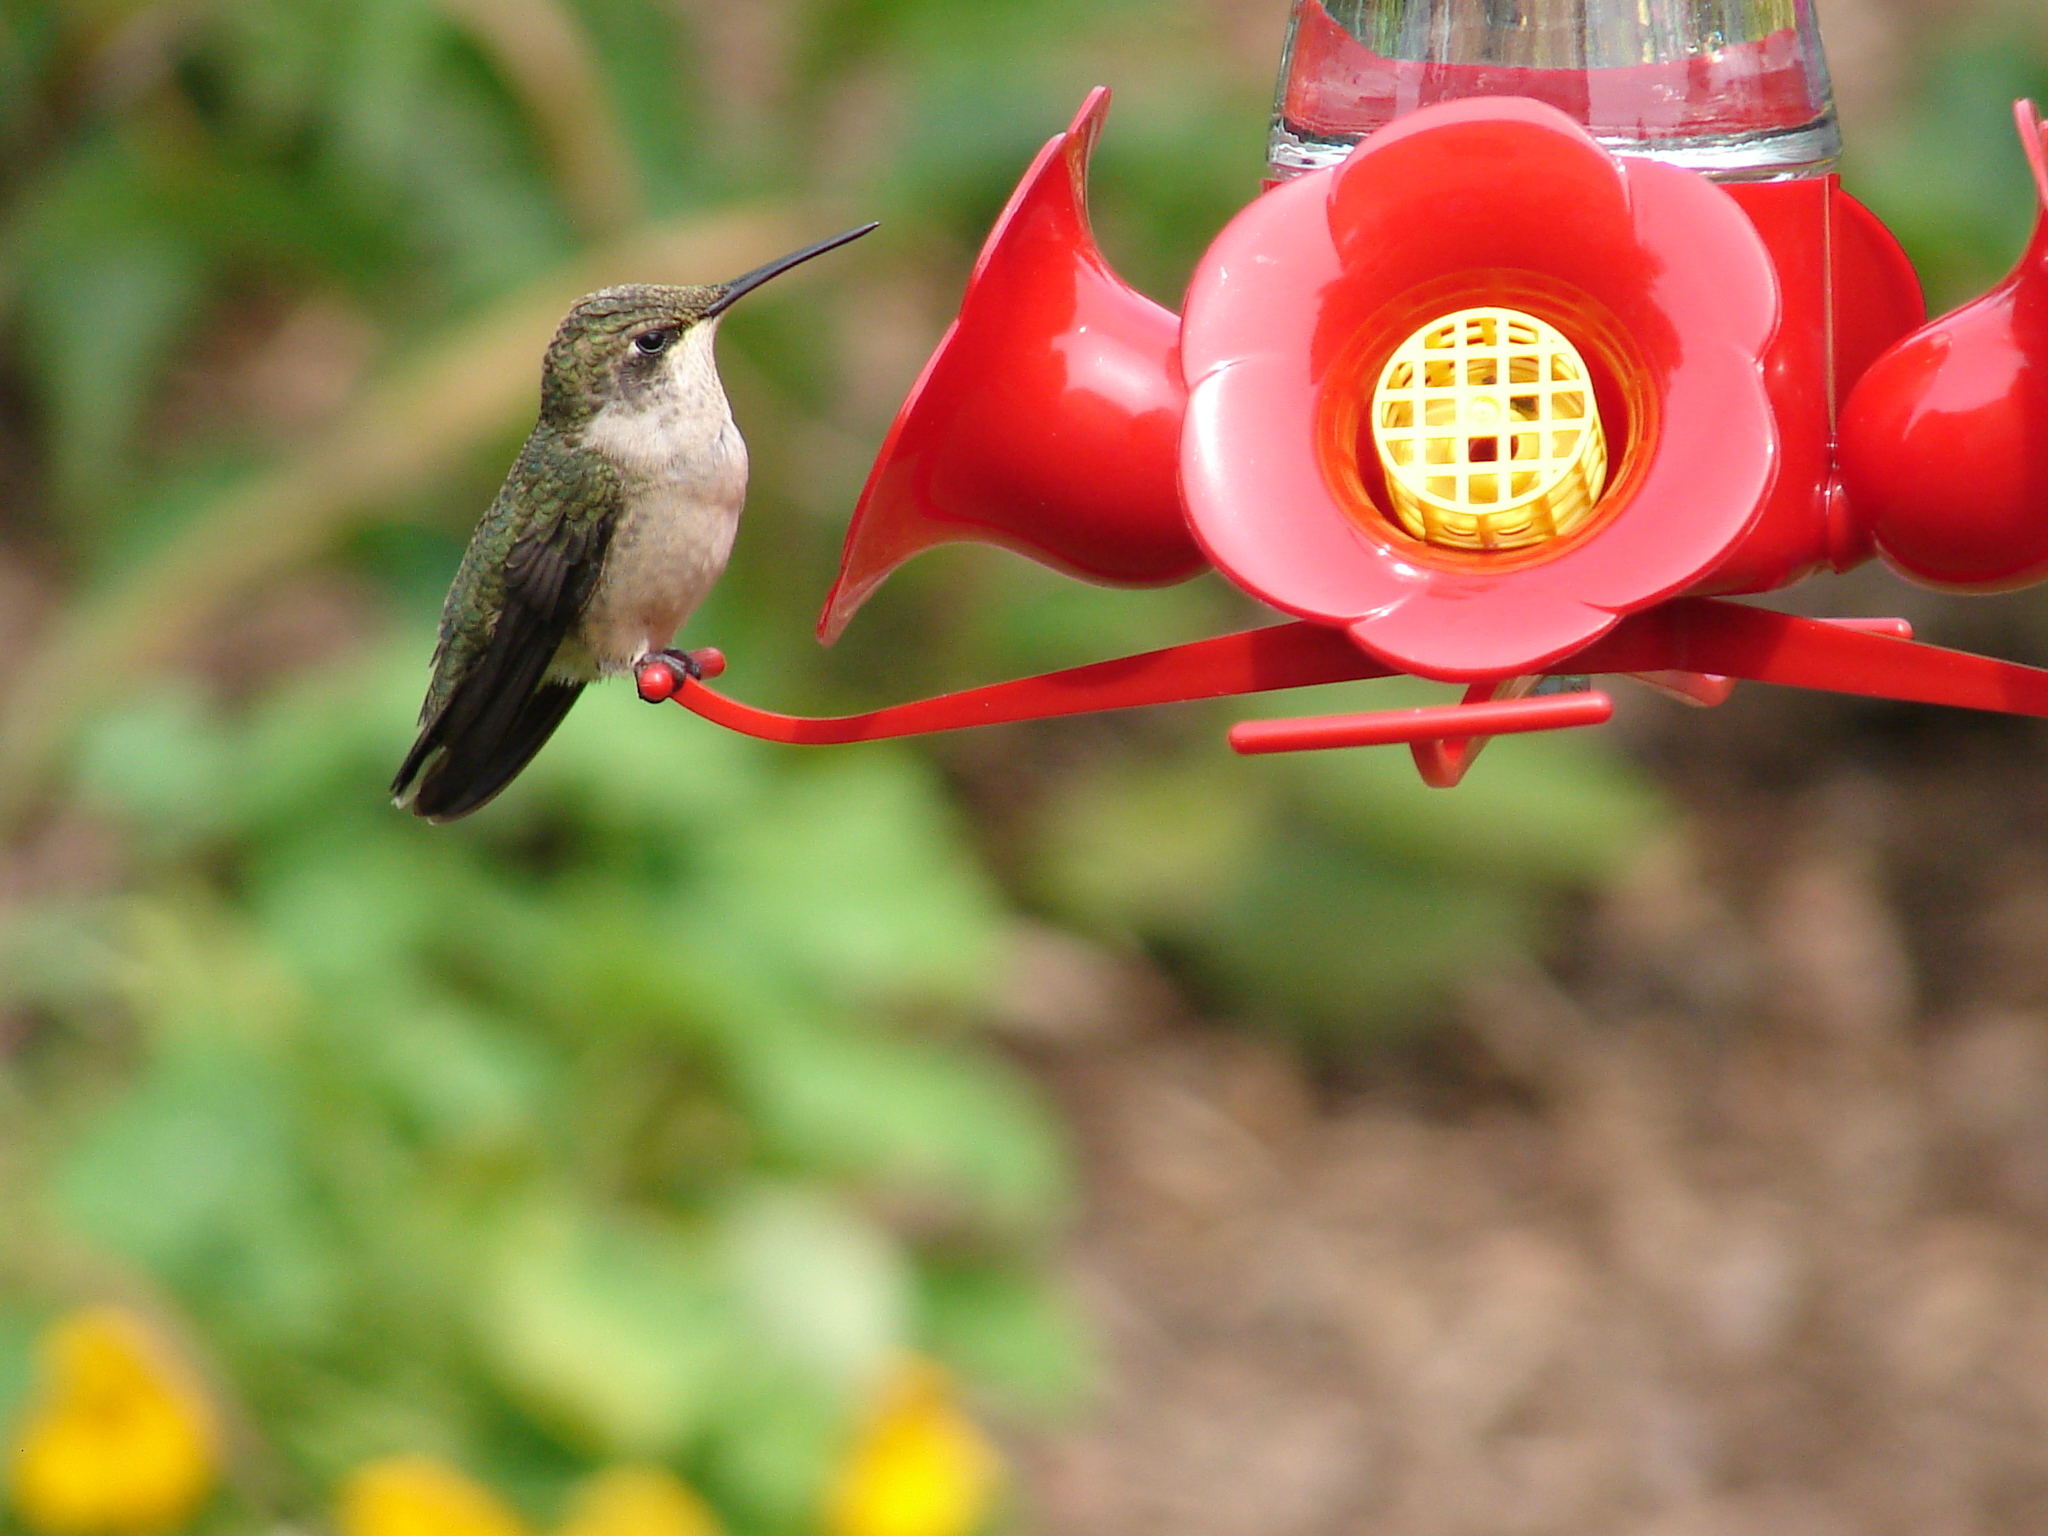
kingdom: Animalia
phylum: Chordata
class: Aves
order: Apodiformes
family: Trochilidae
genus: Archilochus
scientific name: Archilochus colubris
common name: Ruby-throated hummingbird
